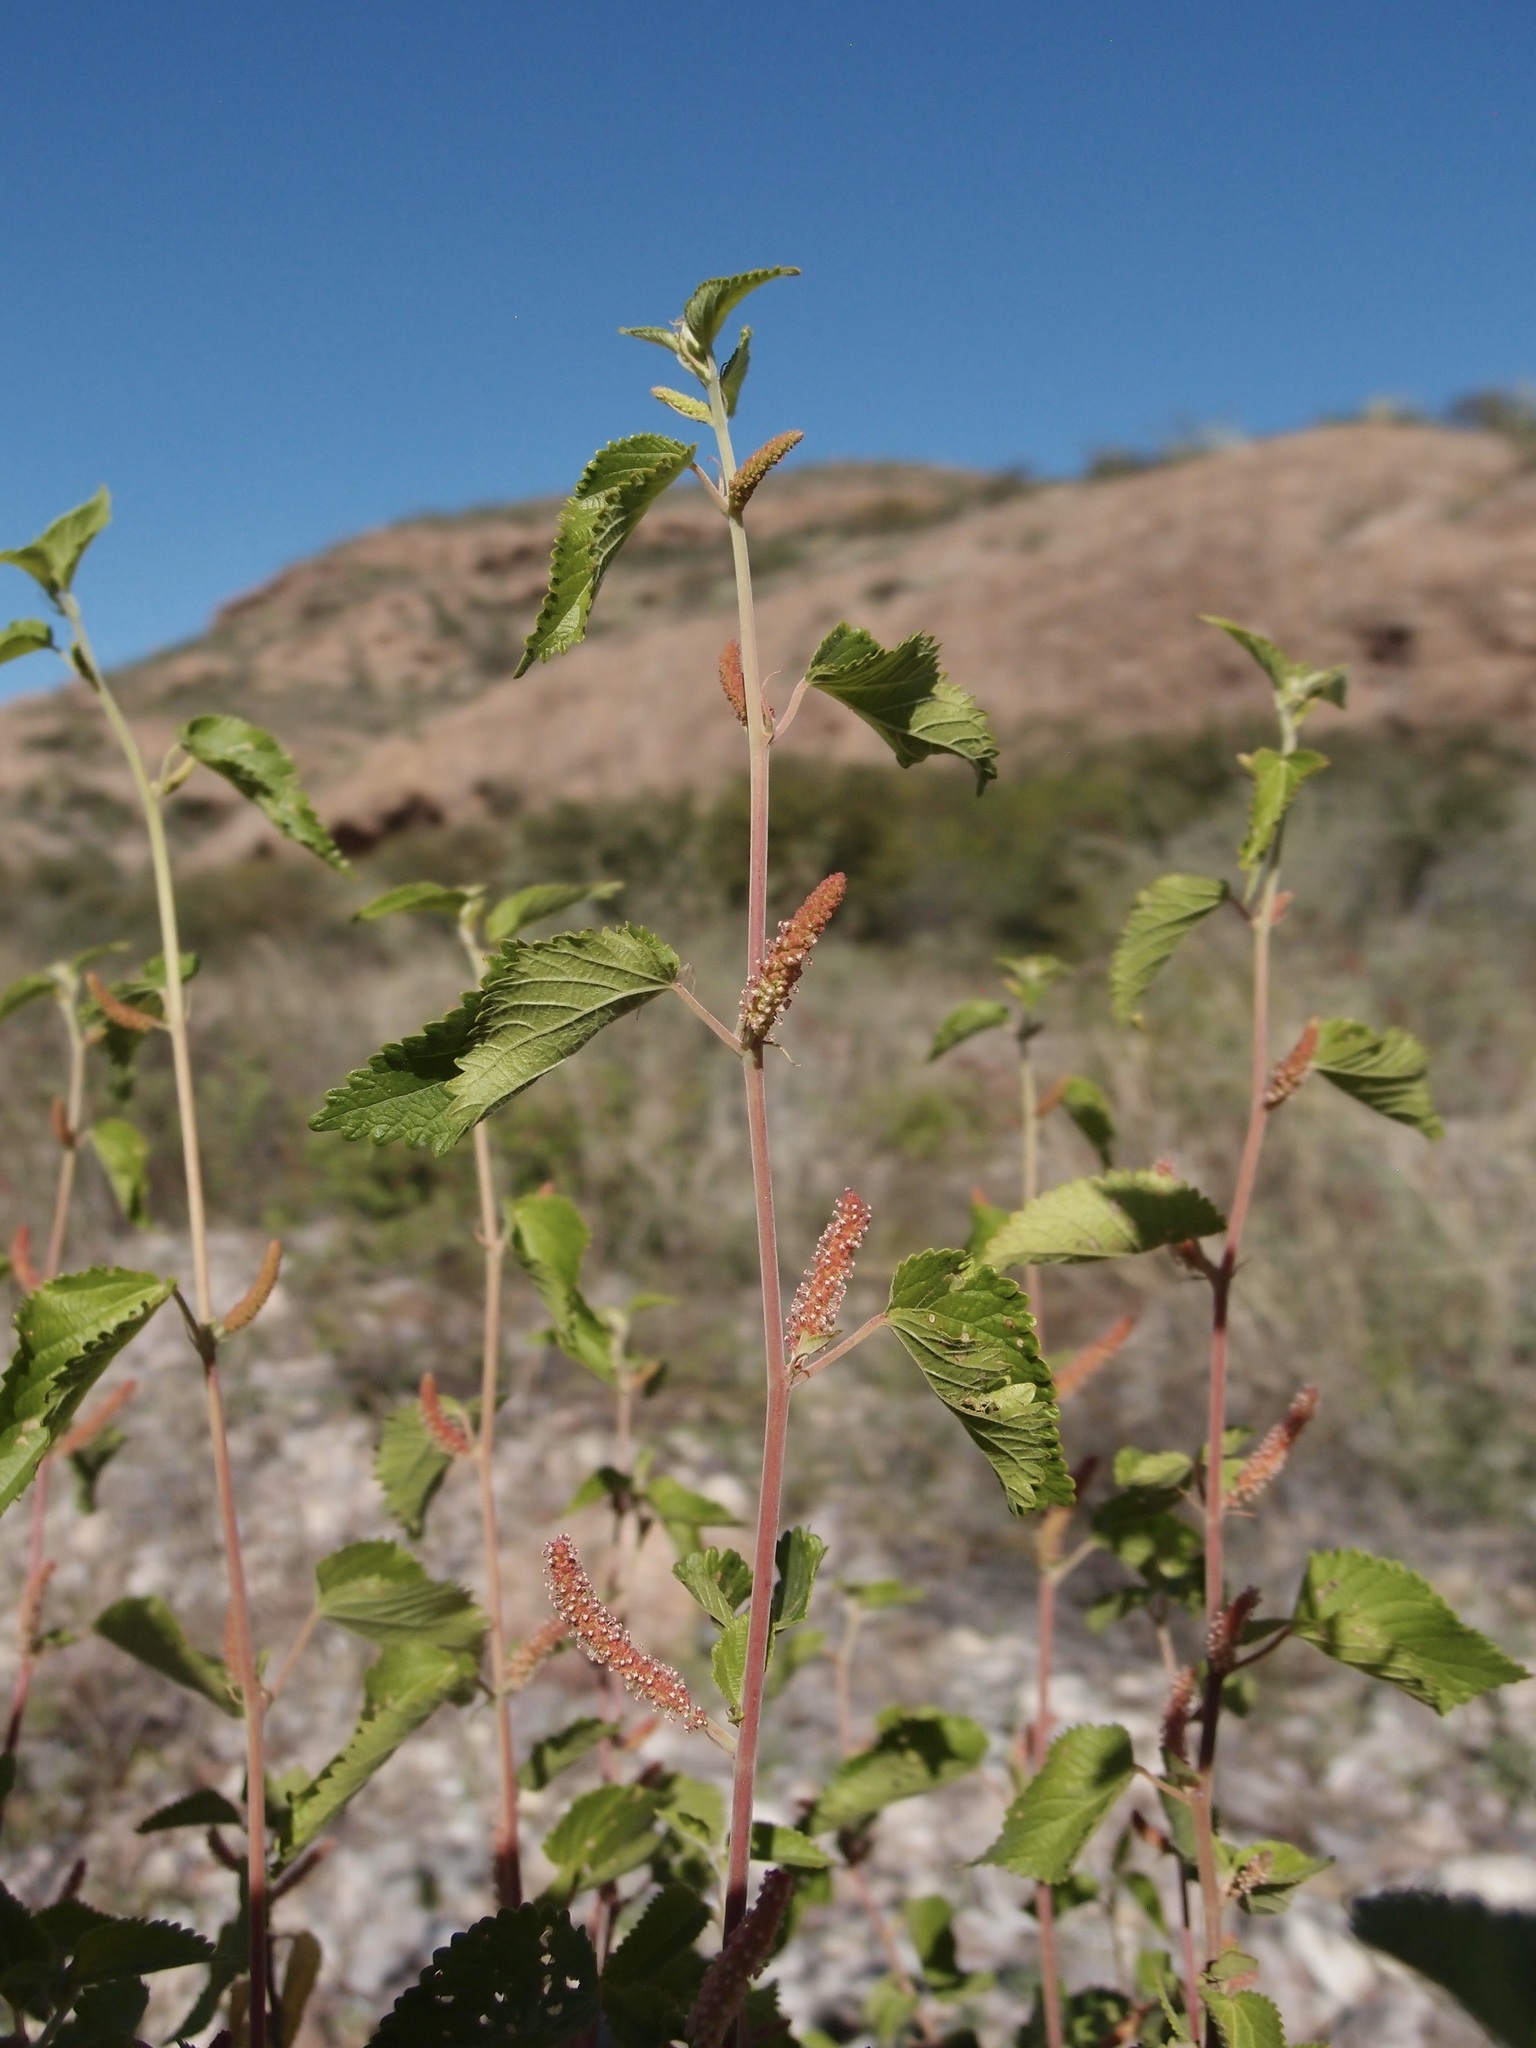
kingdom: Plantae
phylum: Tracheophyta
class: Magnoliopsida
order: Malpighiales
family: Euphorbiaceae
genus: Acalypha
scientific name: Acalypha californica
